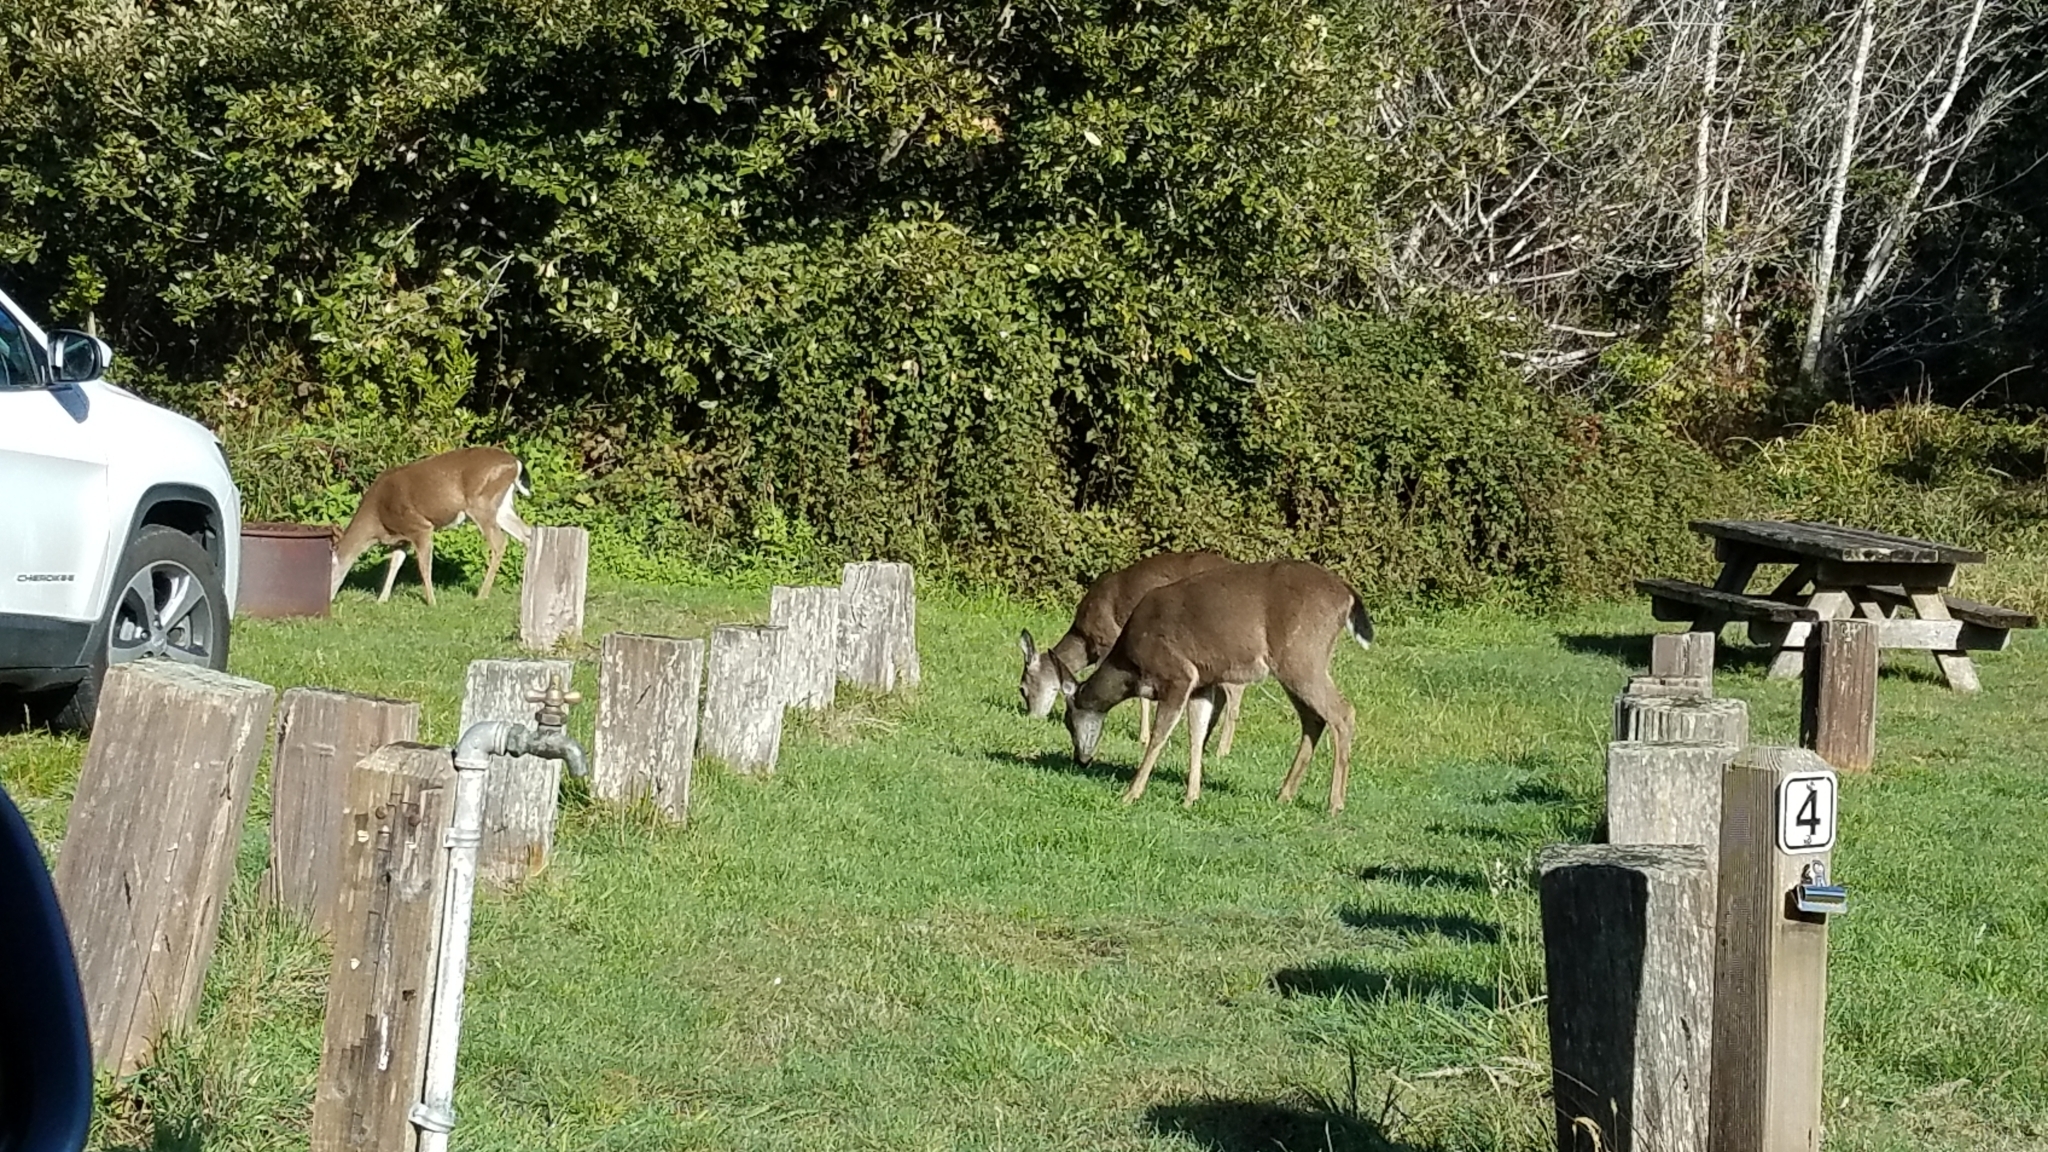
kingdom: Animalia
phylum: Chordata
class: Mammalia
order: Artiodactyla
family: Cervidae
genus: Odocoileus
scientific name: Odocoileus hemionus
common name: Mule deer
